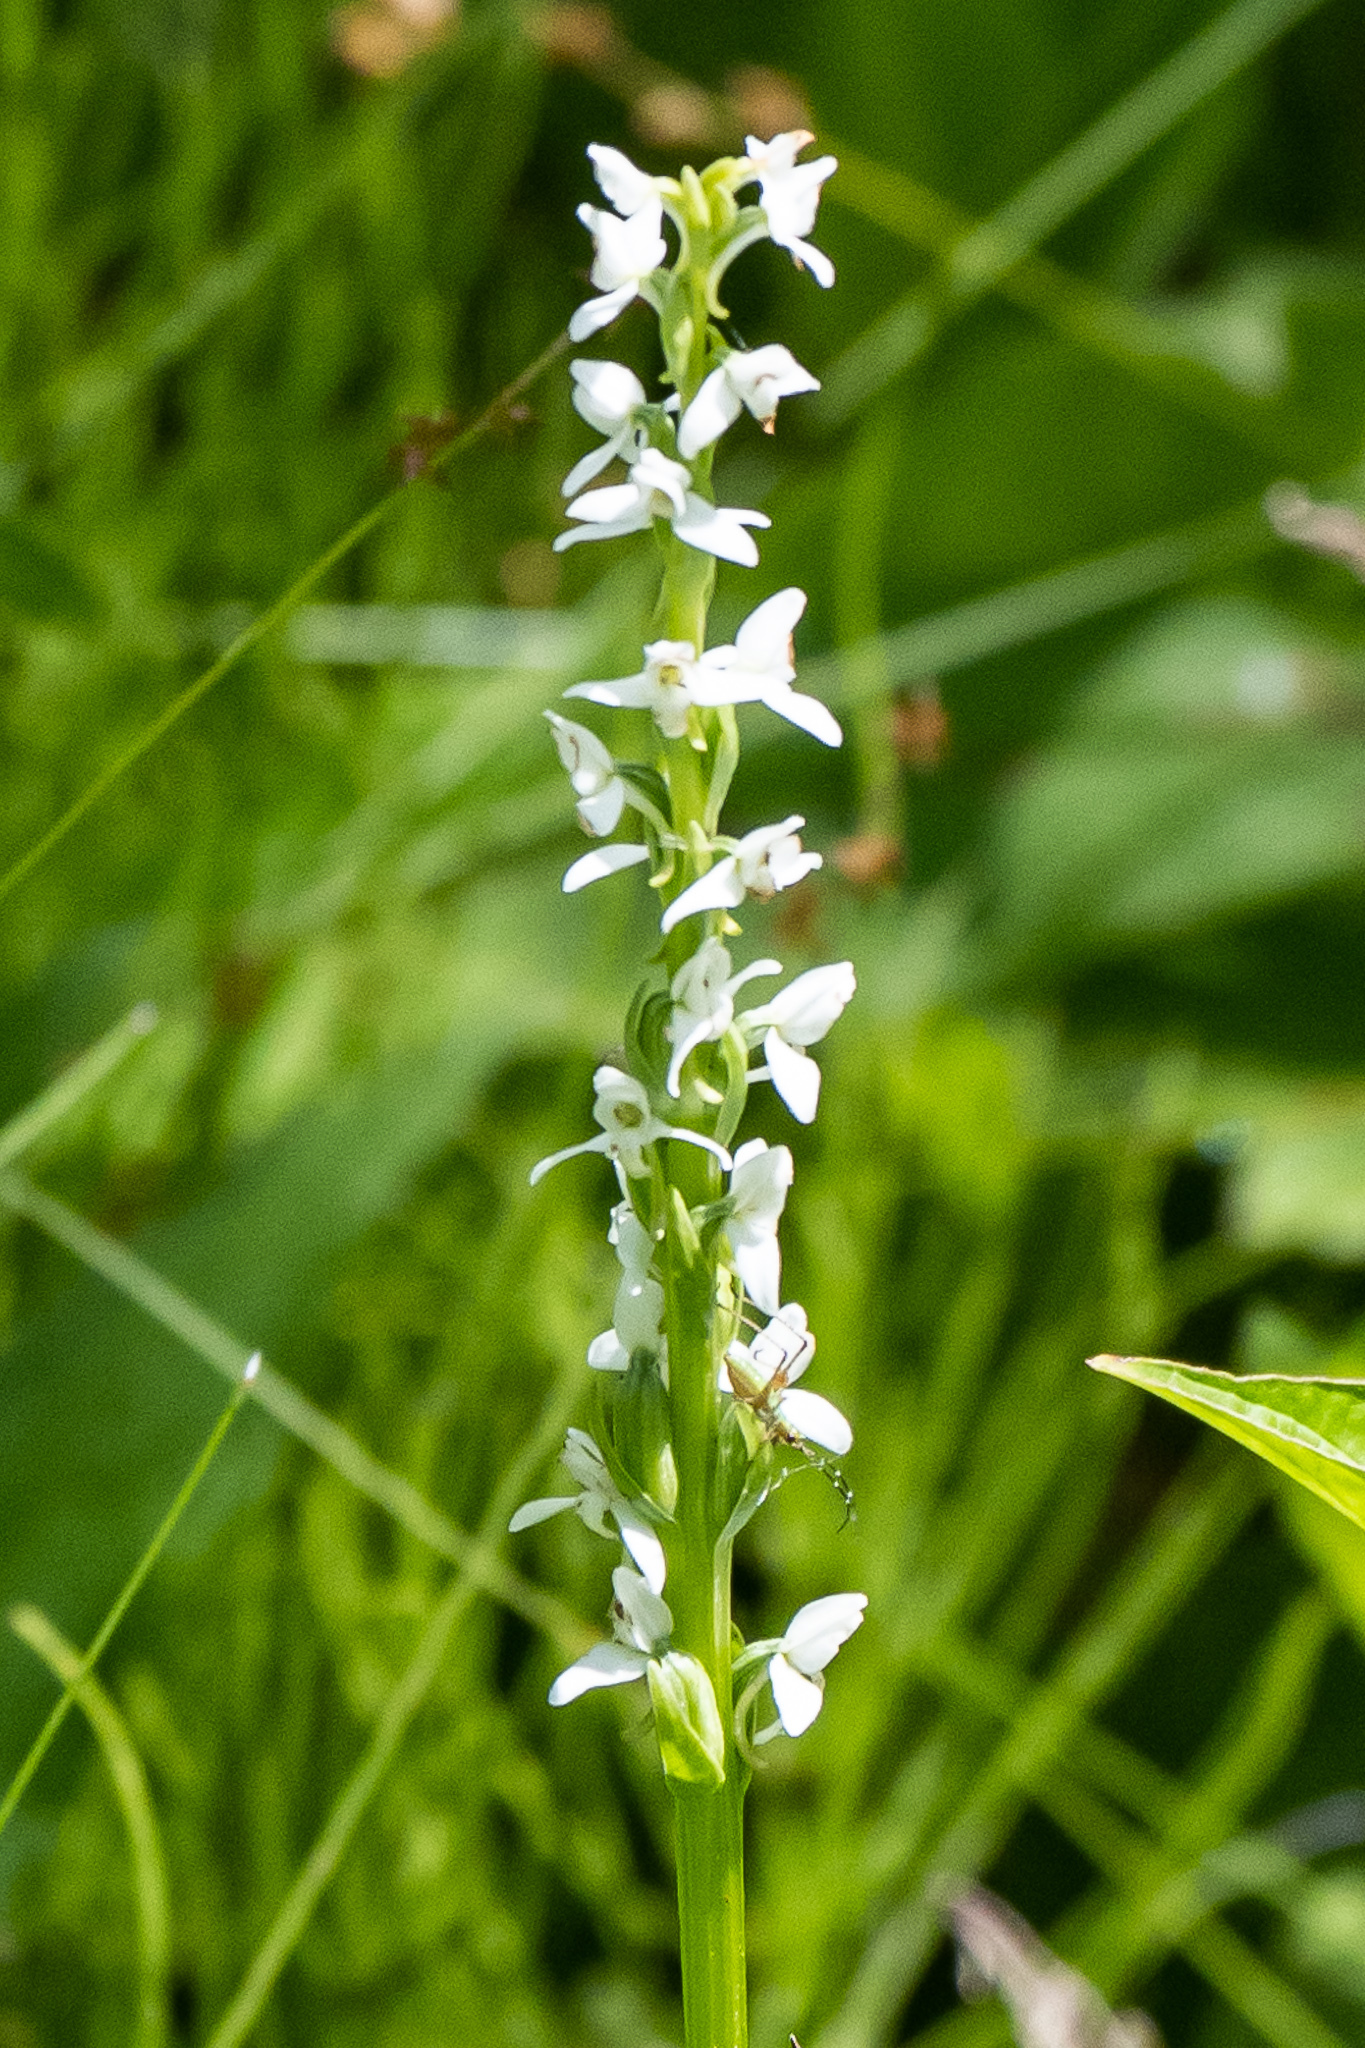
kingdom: Plantae
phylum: Tracheophyta
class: Liliopsida
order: Asparagales
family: Orchidaceae
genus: Platanthera
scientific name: Platanthera dilatata
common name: Bog candles
